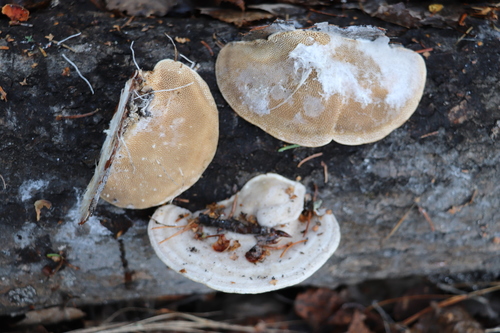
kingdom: Fungi
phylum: Basidiomycota
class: Agaricomycetes
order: Polyporales
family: Polyporaceae
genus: Trametes
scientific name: Trametes gibbosa
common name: Lumpy bracket
